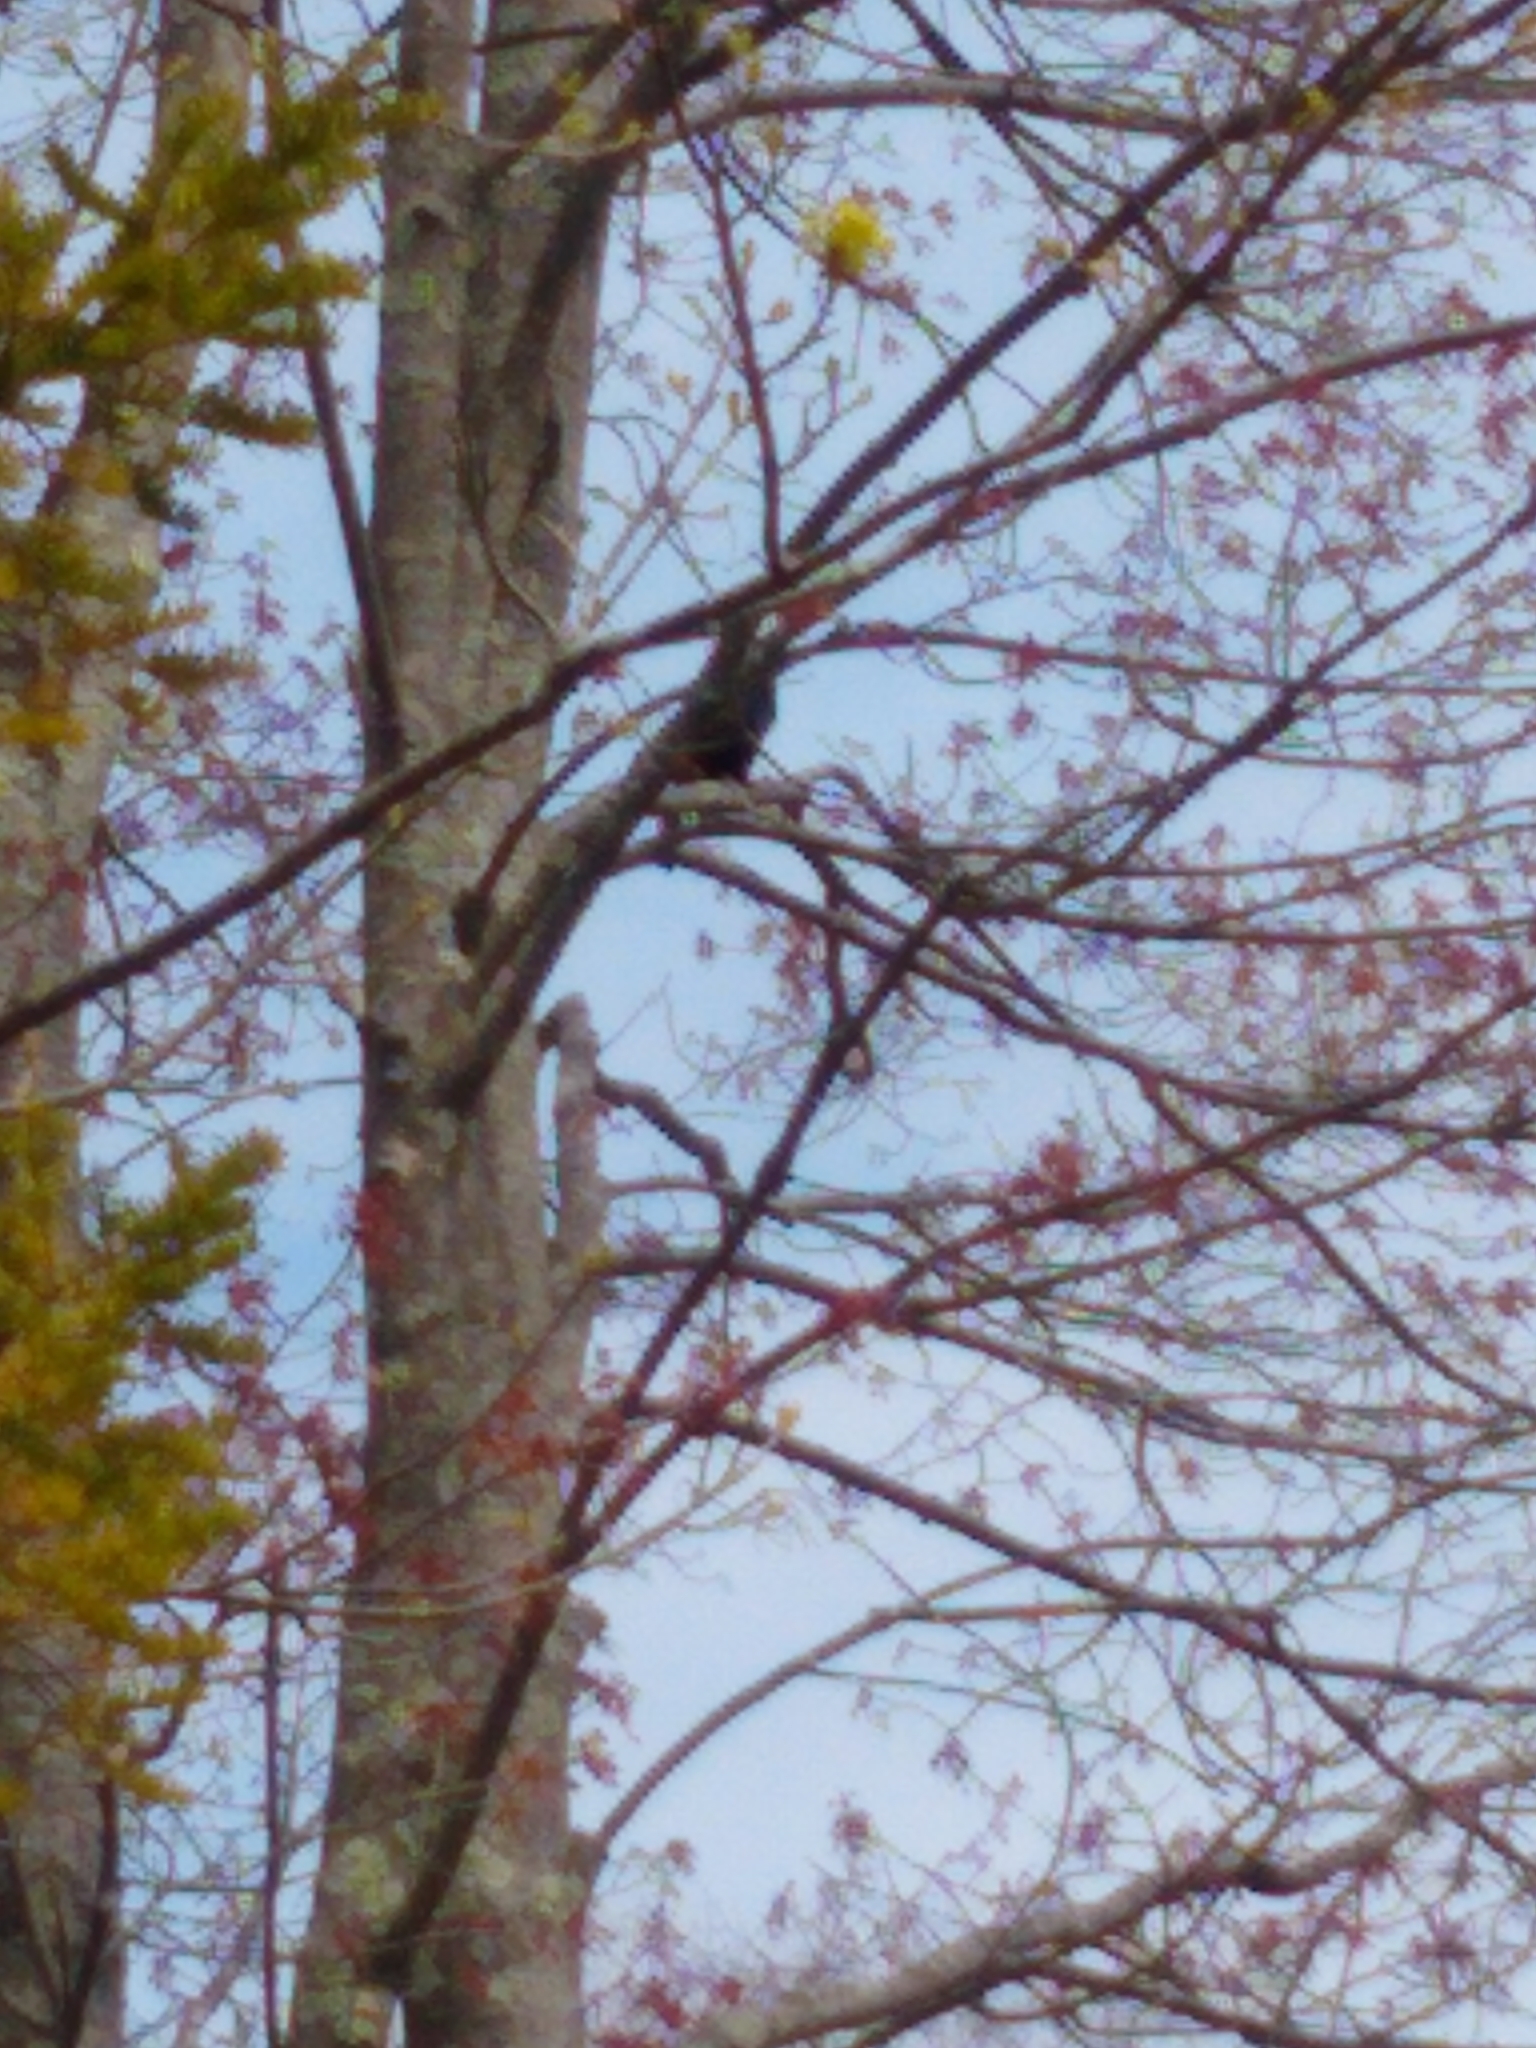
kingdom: Animalia
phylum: Chordata
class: Aves
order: Passeriformes
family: Icteridae
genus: Quiscalus
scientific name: Quiscalus quiscula
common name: Common grackle
